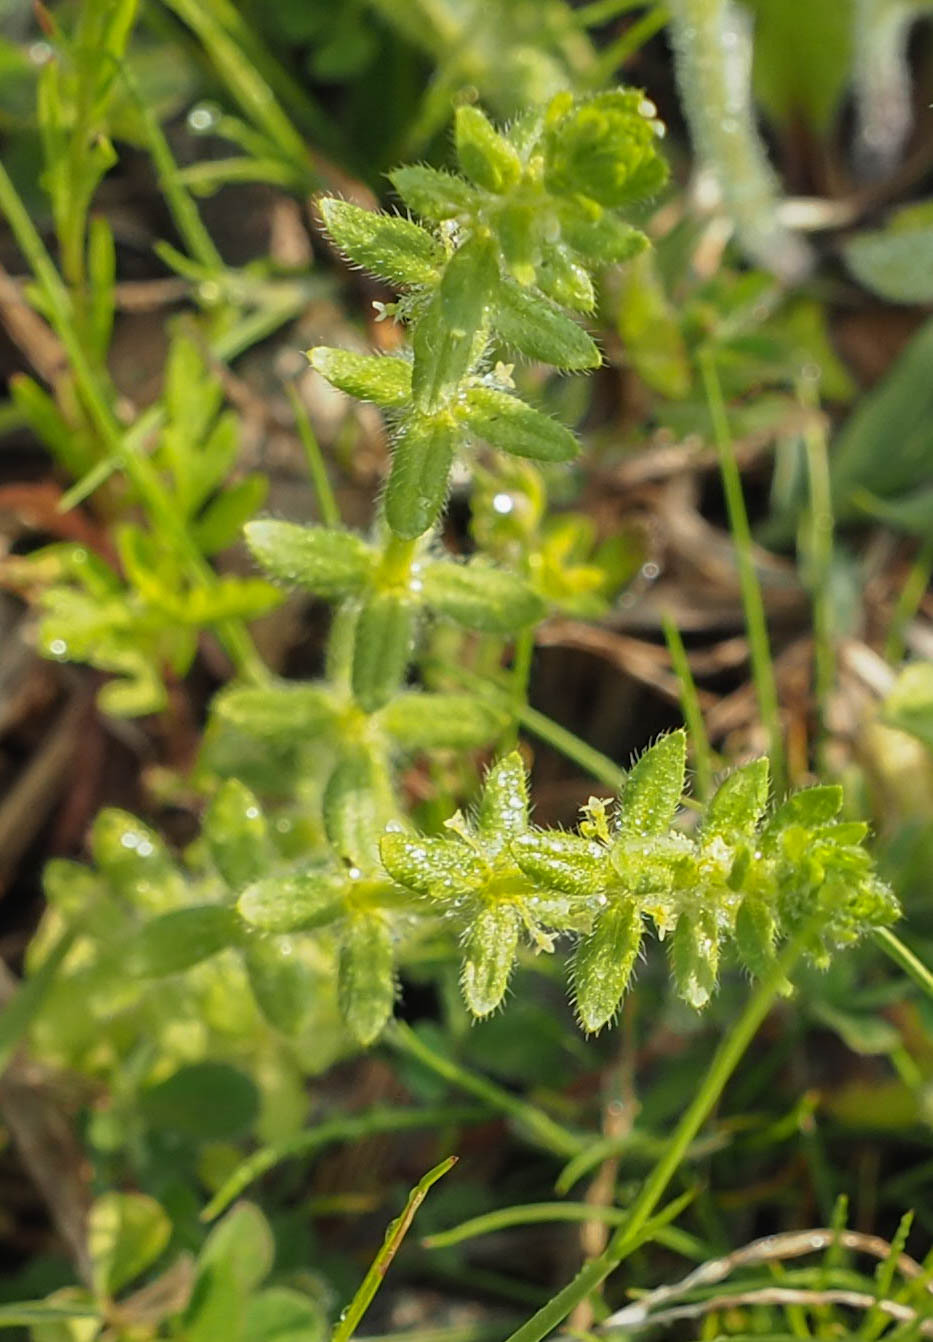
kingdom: Plantae
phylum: Tracheophyta
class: Magnoliopsida
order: Gentianales
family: Rubiaceae
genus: Cruciata
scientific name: Cruciata pedemontana
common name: Piedmont bedstraw
